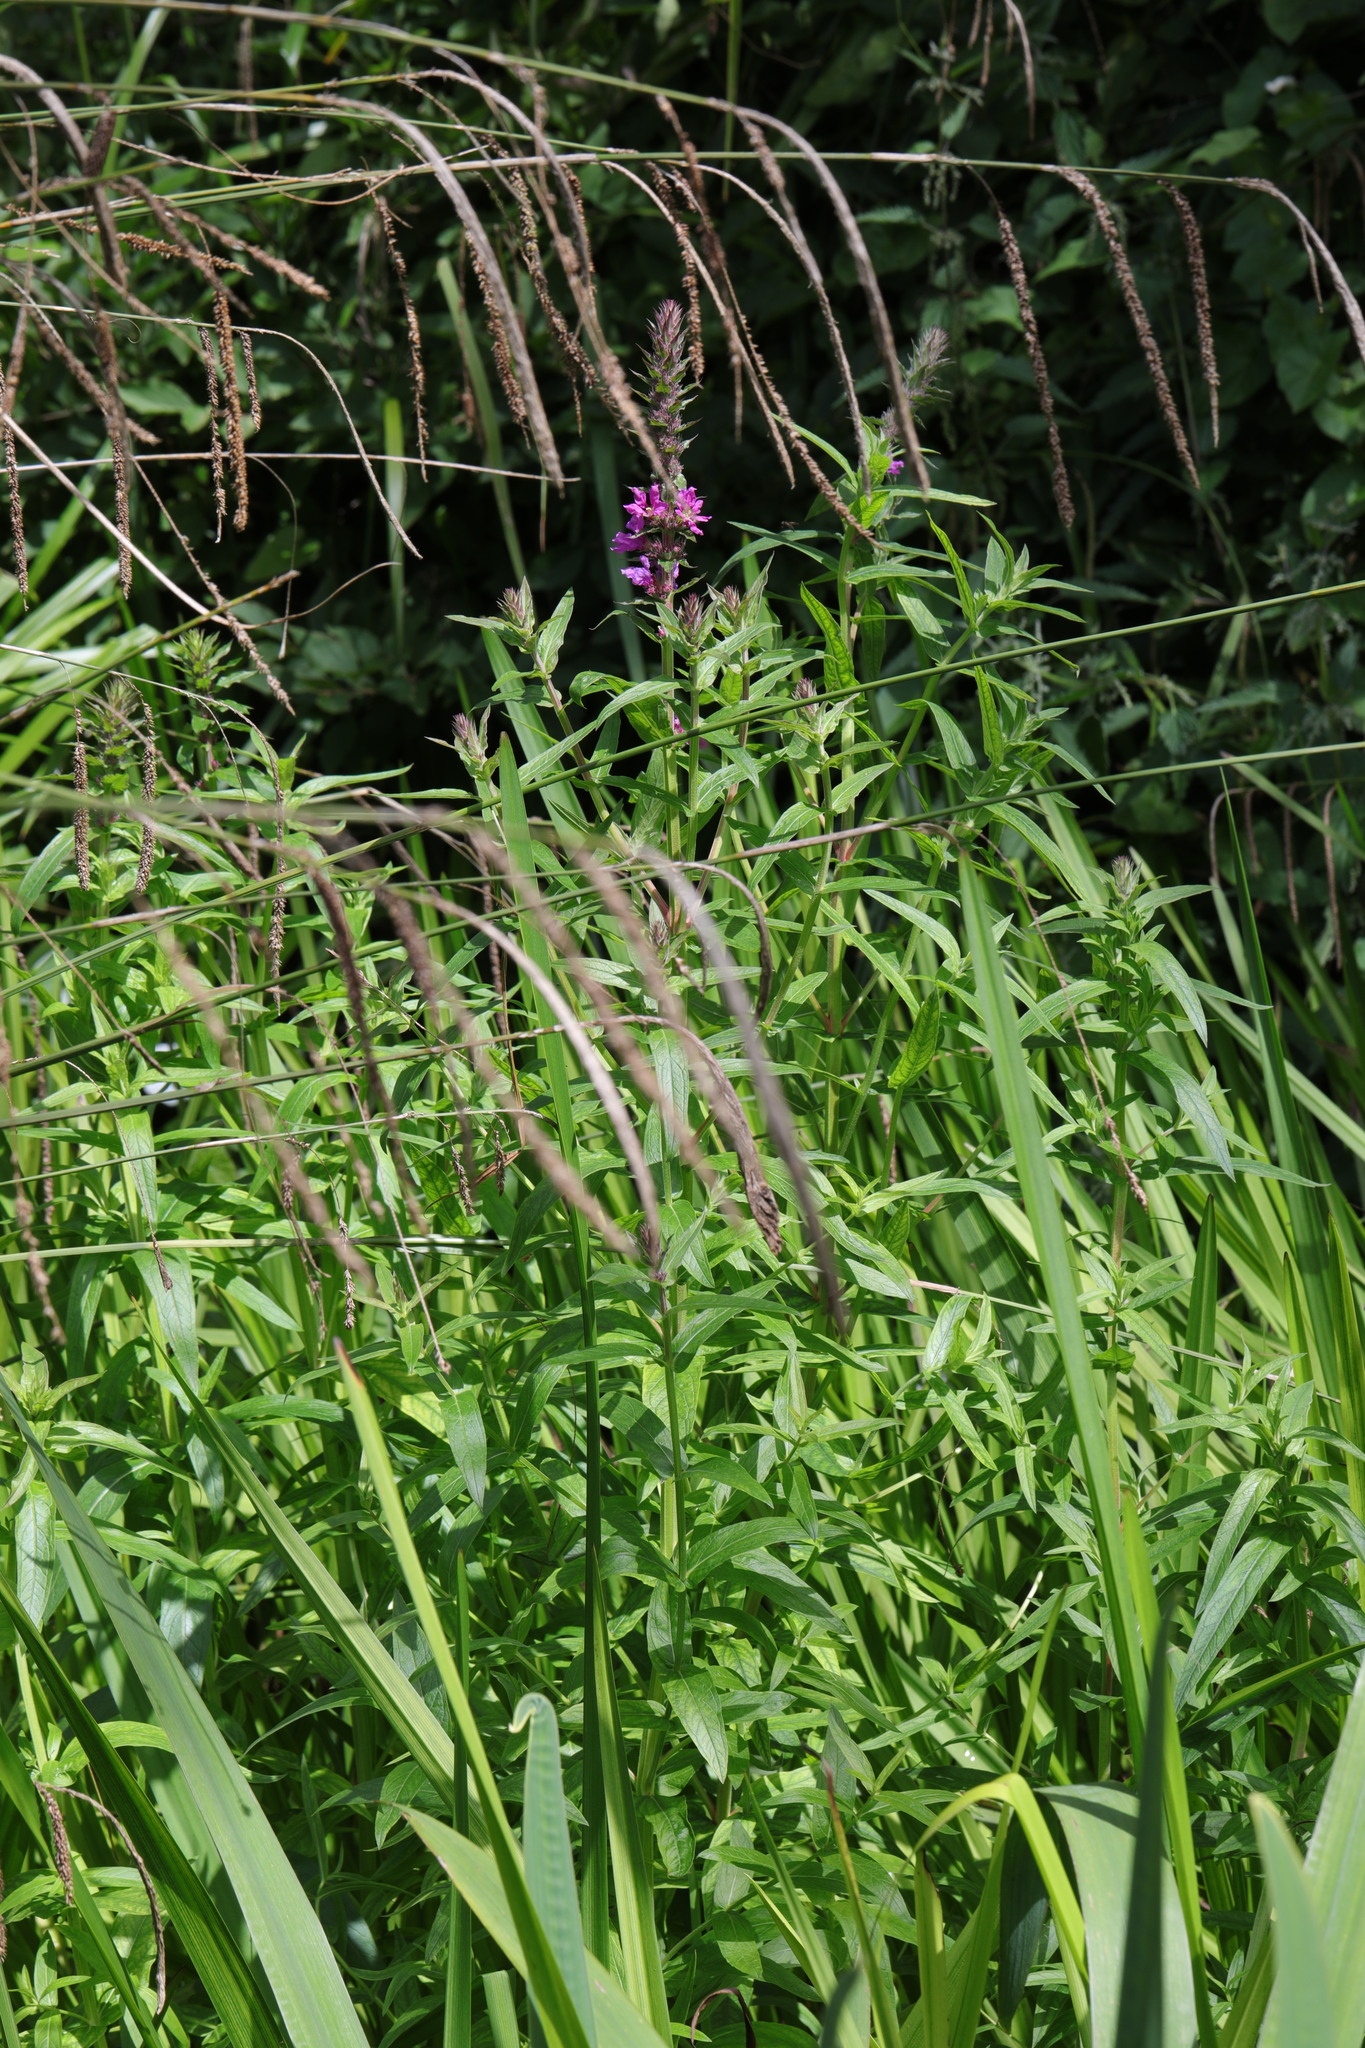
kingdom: Plantae
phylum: Tracheophyta
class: Magnoliopsida
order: Myrtales
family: Lythraceae
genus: Lythrum
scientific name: Lythrum salicaria
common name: Purple loosestrife
